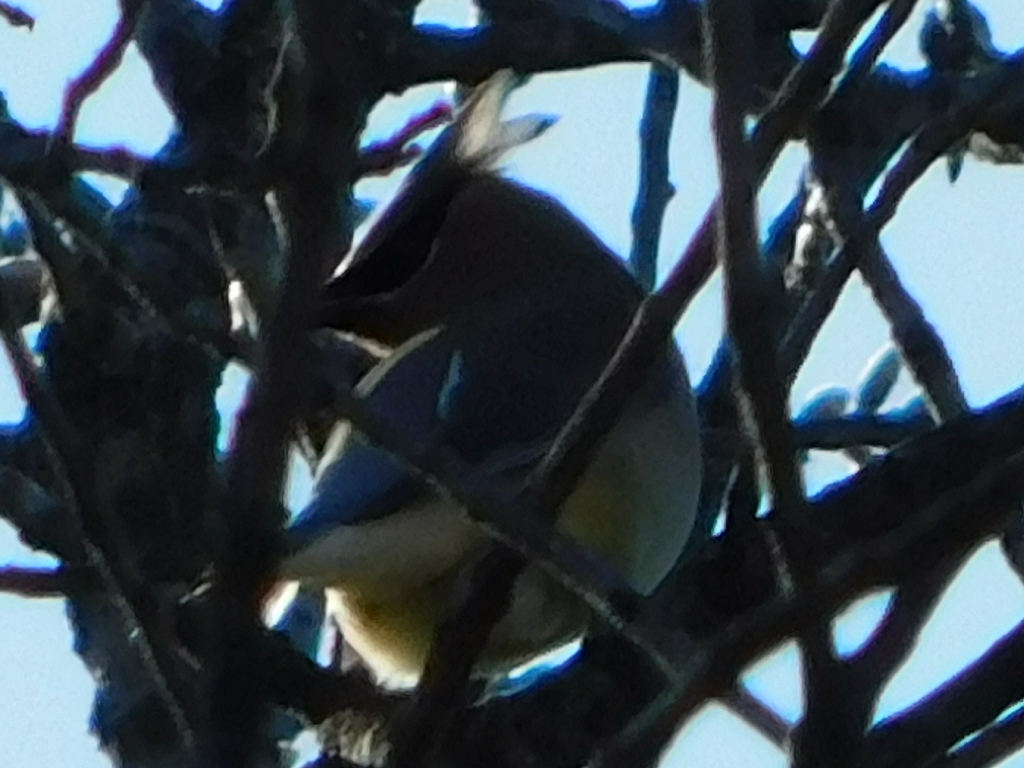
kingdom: Animalia
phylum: Chordata
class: Aves
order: Passeriformes
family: Bombycillidae
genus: Bombycilla
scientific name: Bombycilla cedrorum
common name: Cedar waxwing
